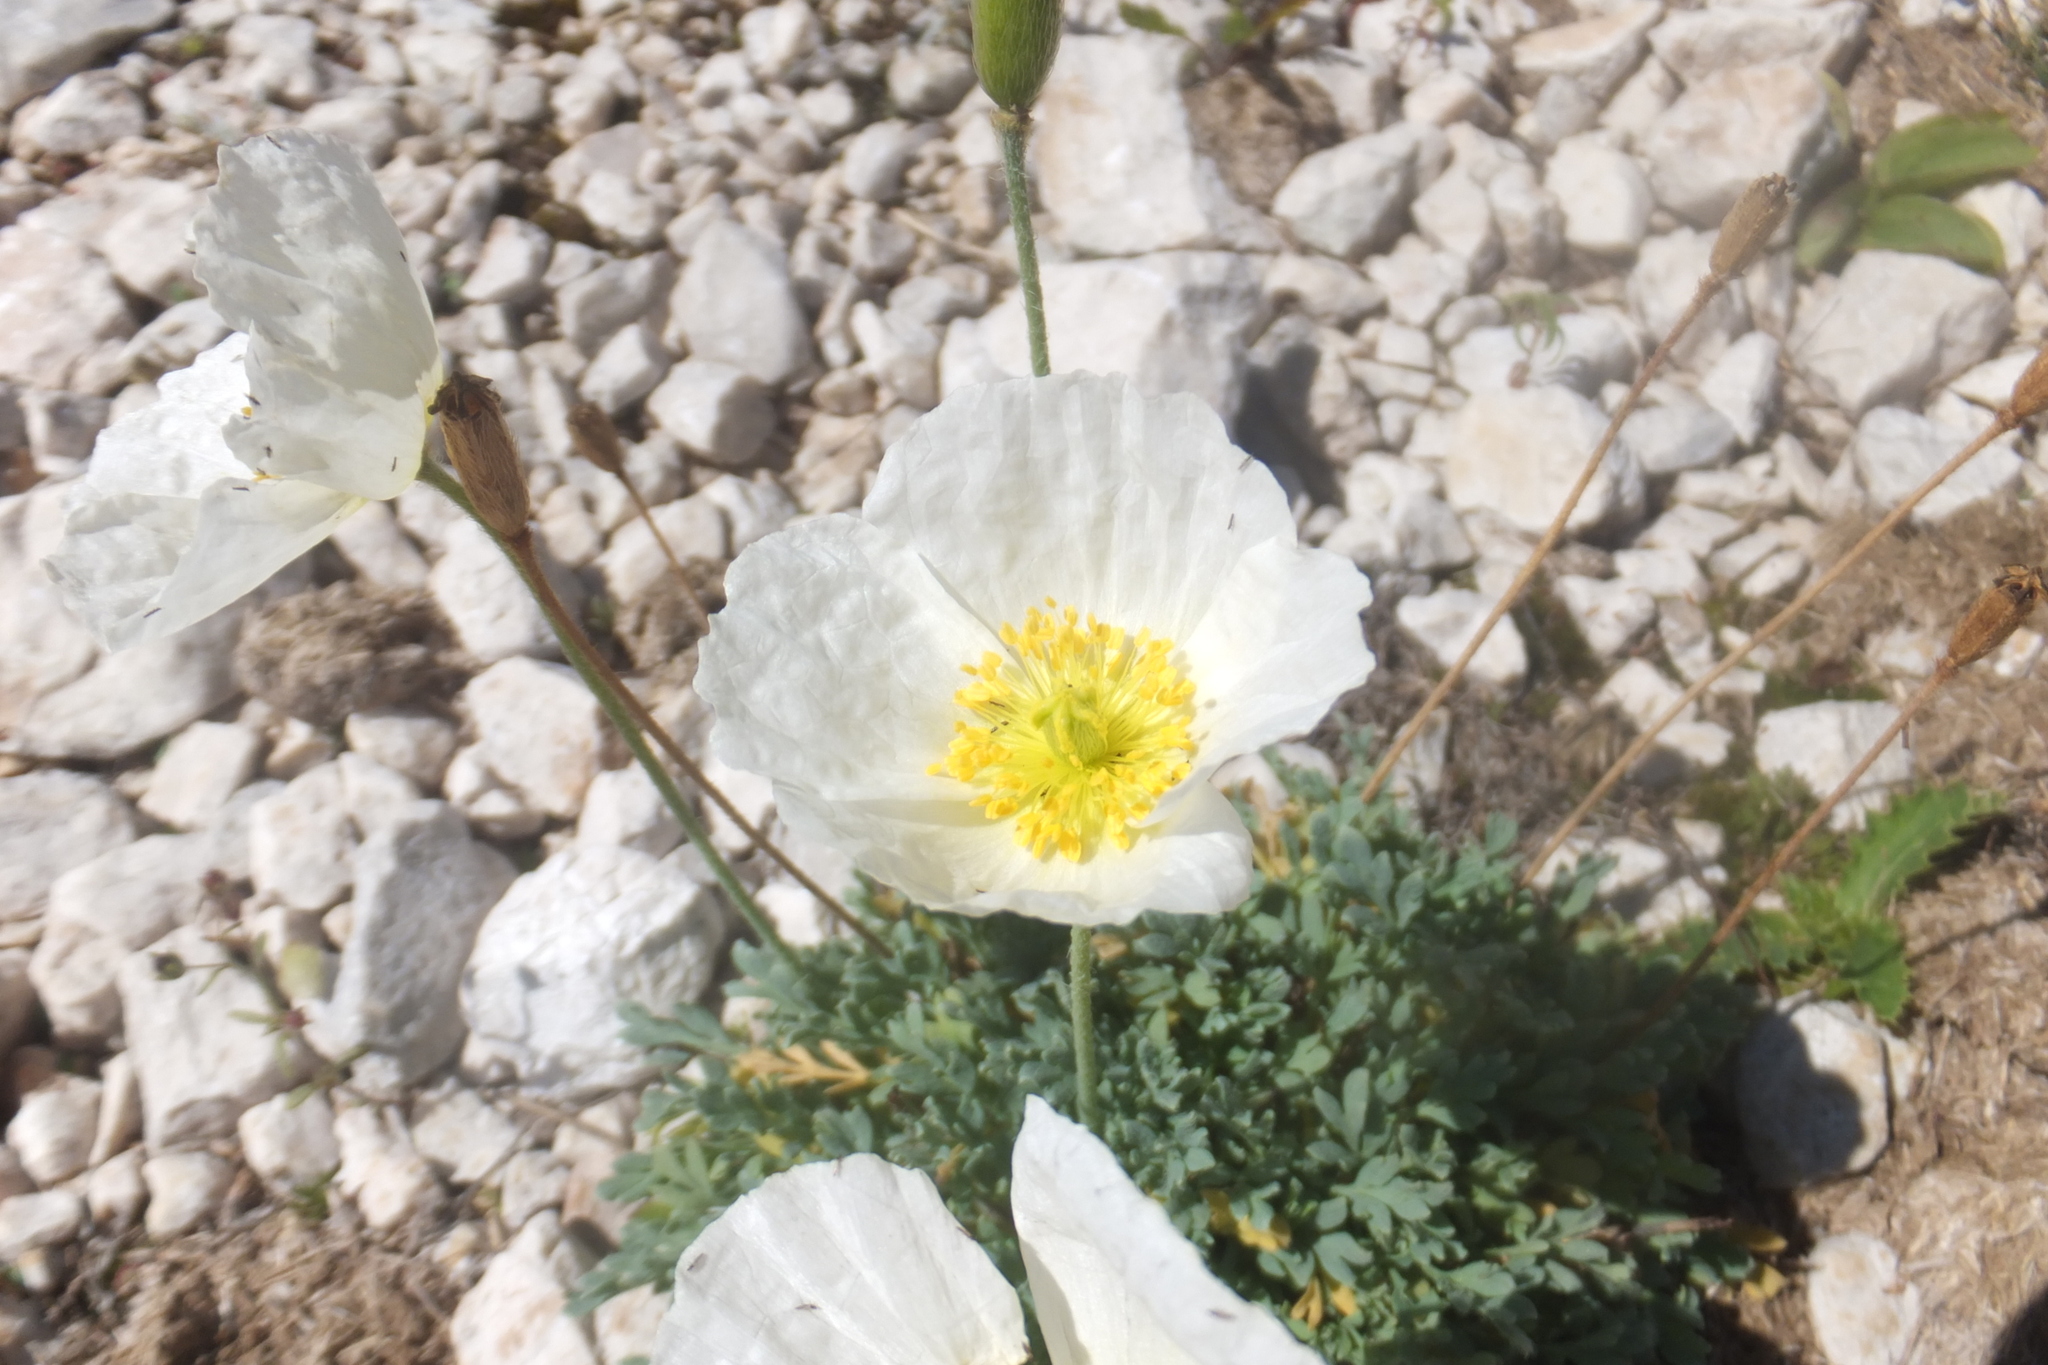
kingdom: Plantae
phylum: Tracheophyta
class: Magnoliopsida
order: Ranunculales
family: Papaveraceae
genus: Papaver
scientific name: Papaver alpinum
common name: Austrian poppy
